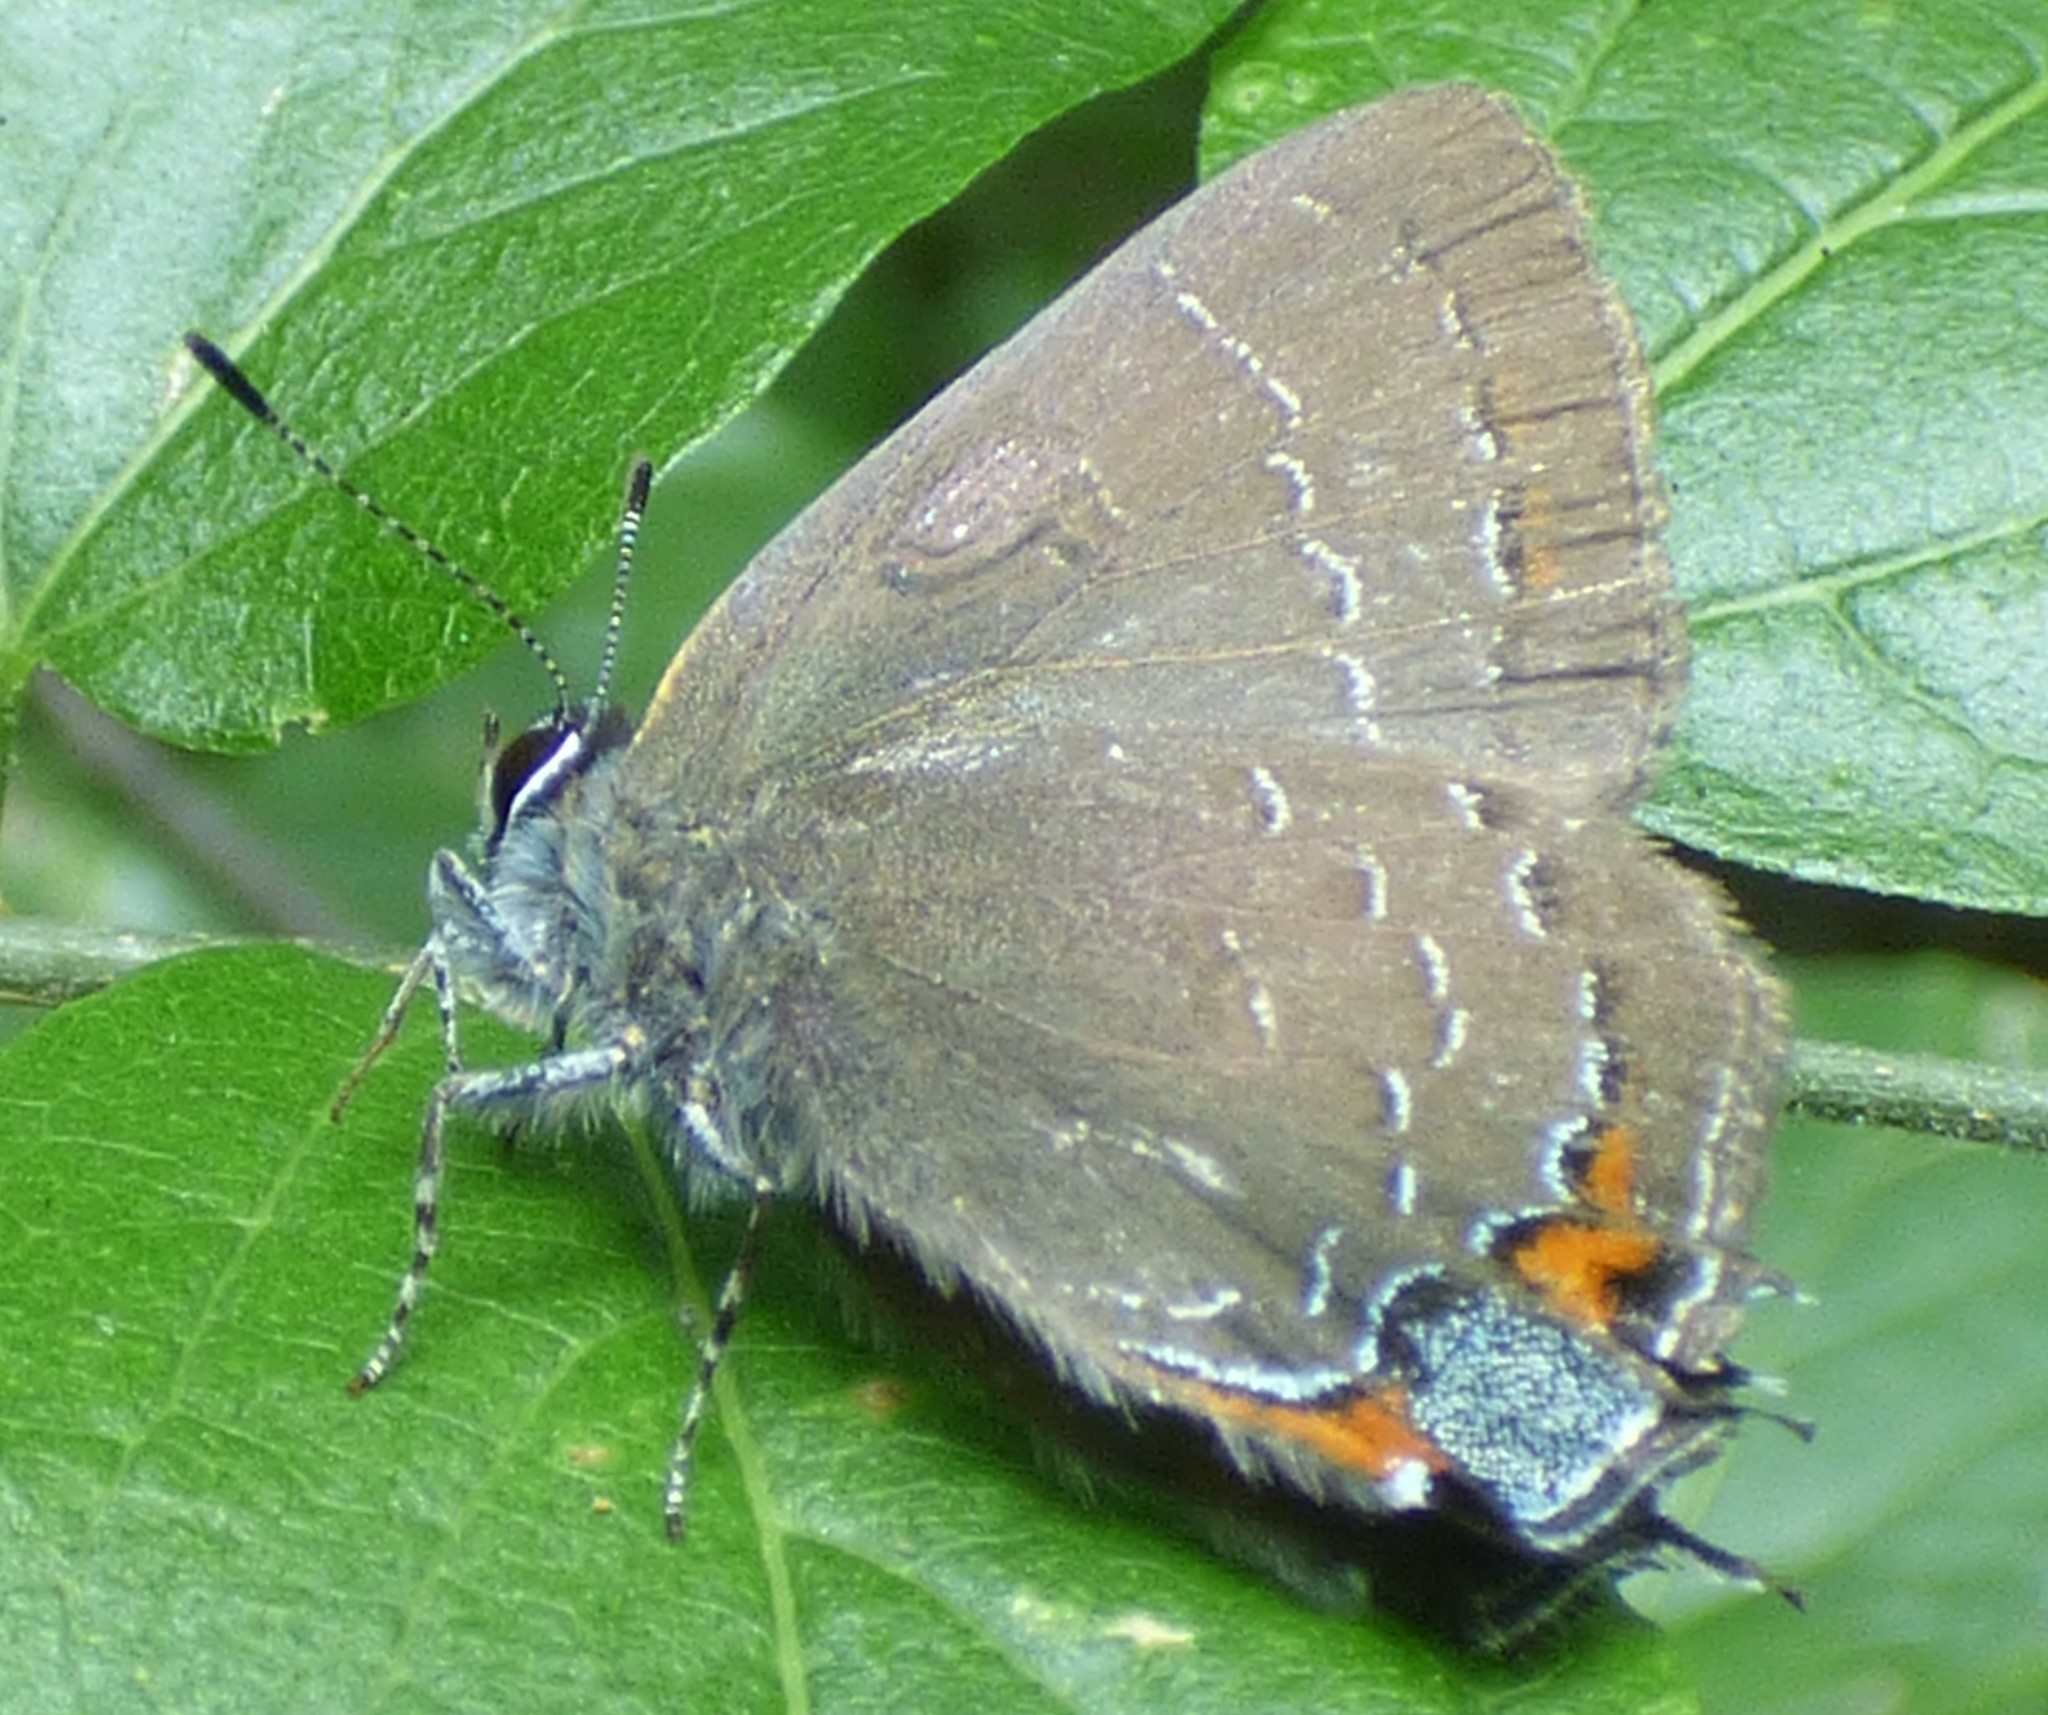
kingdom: Animalia
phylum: Arthropoda
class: Insecta
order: Lepidoptera
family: Lycaenidae
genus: Satyrium
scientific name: Satyrium calanus
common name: Banded hairstreak
